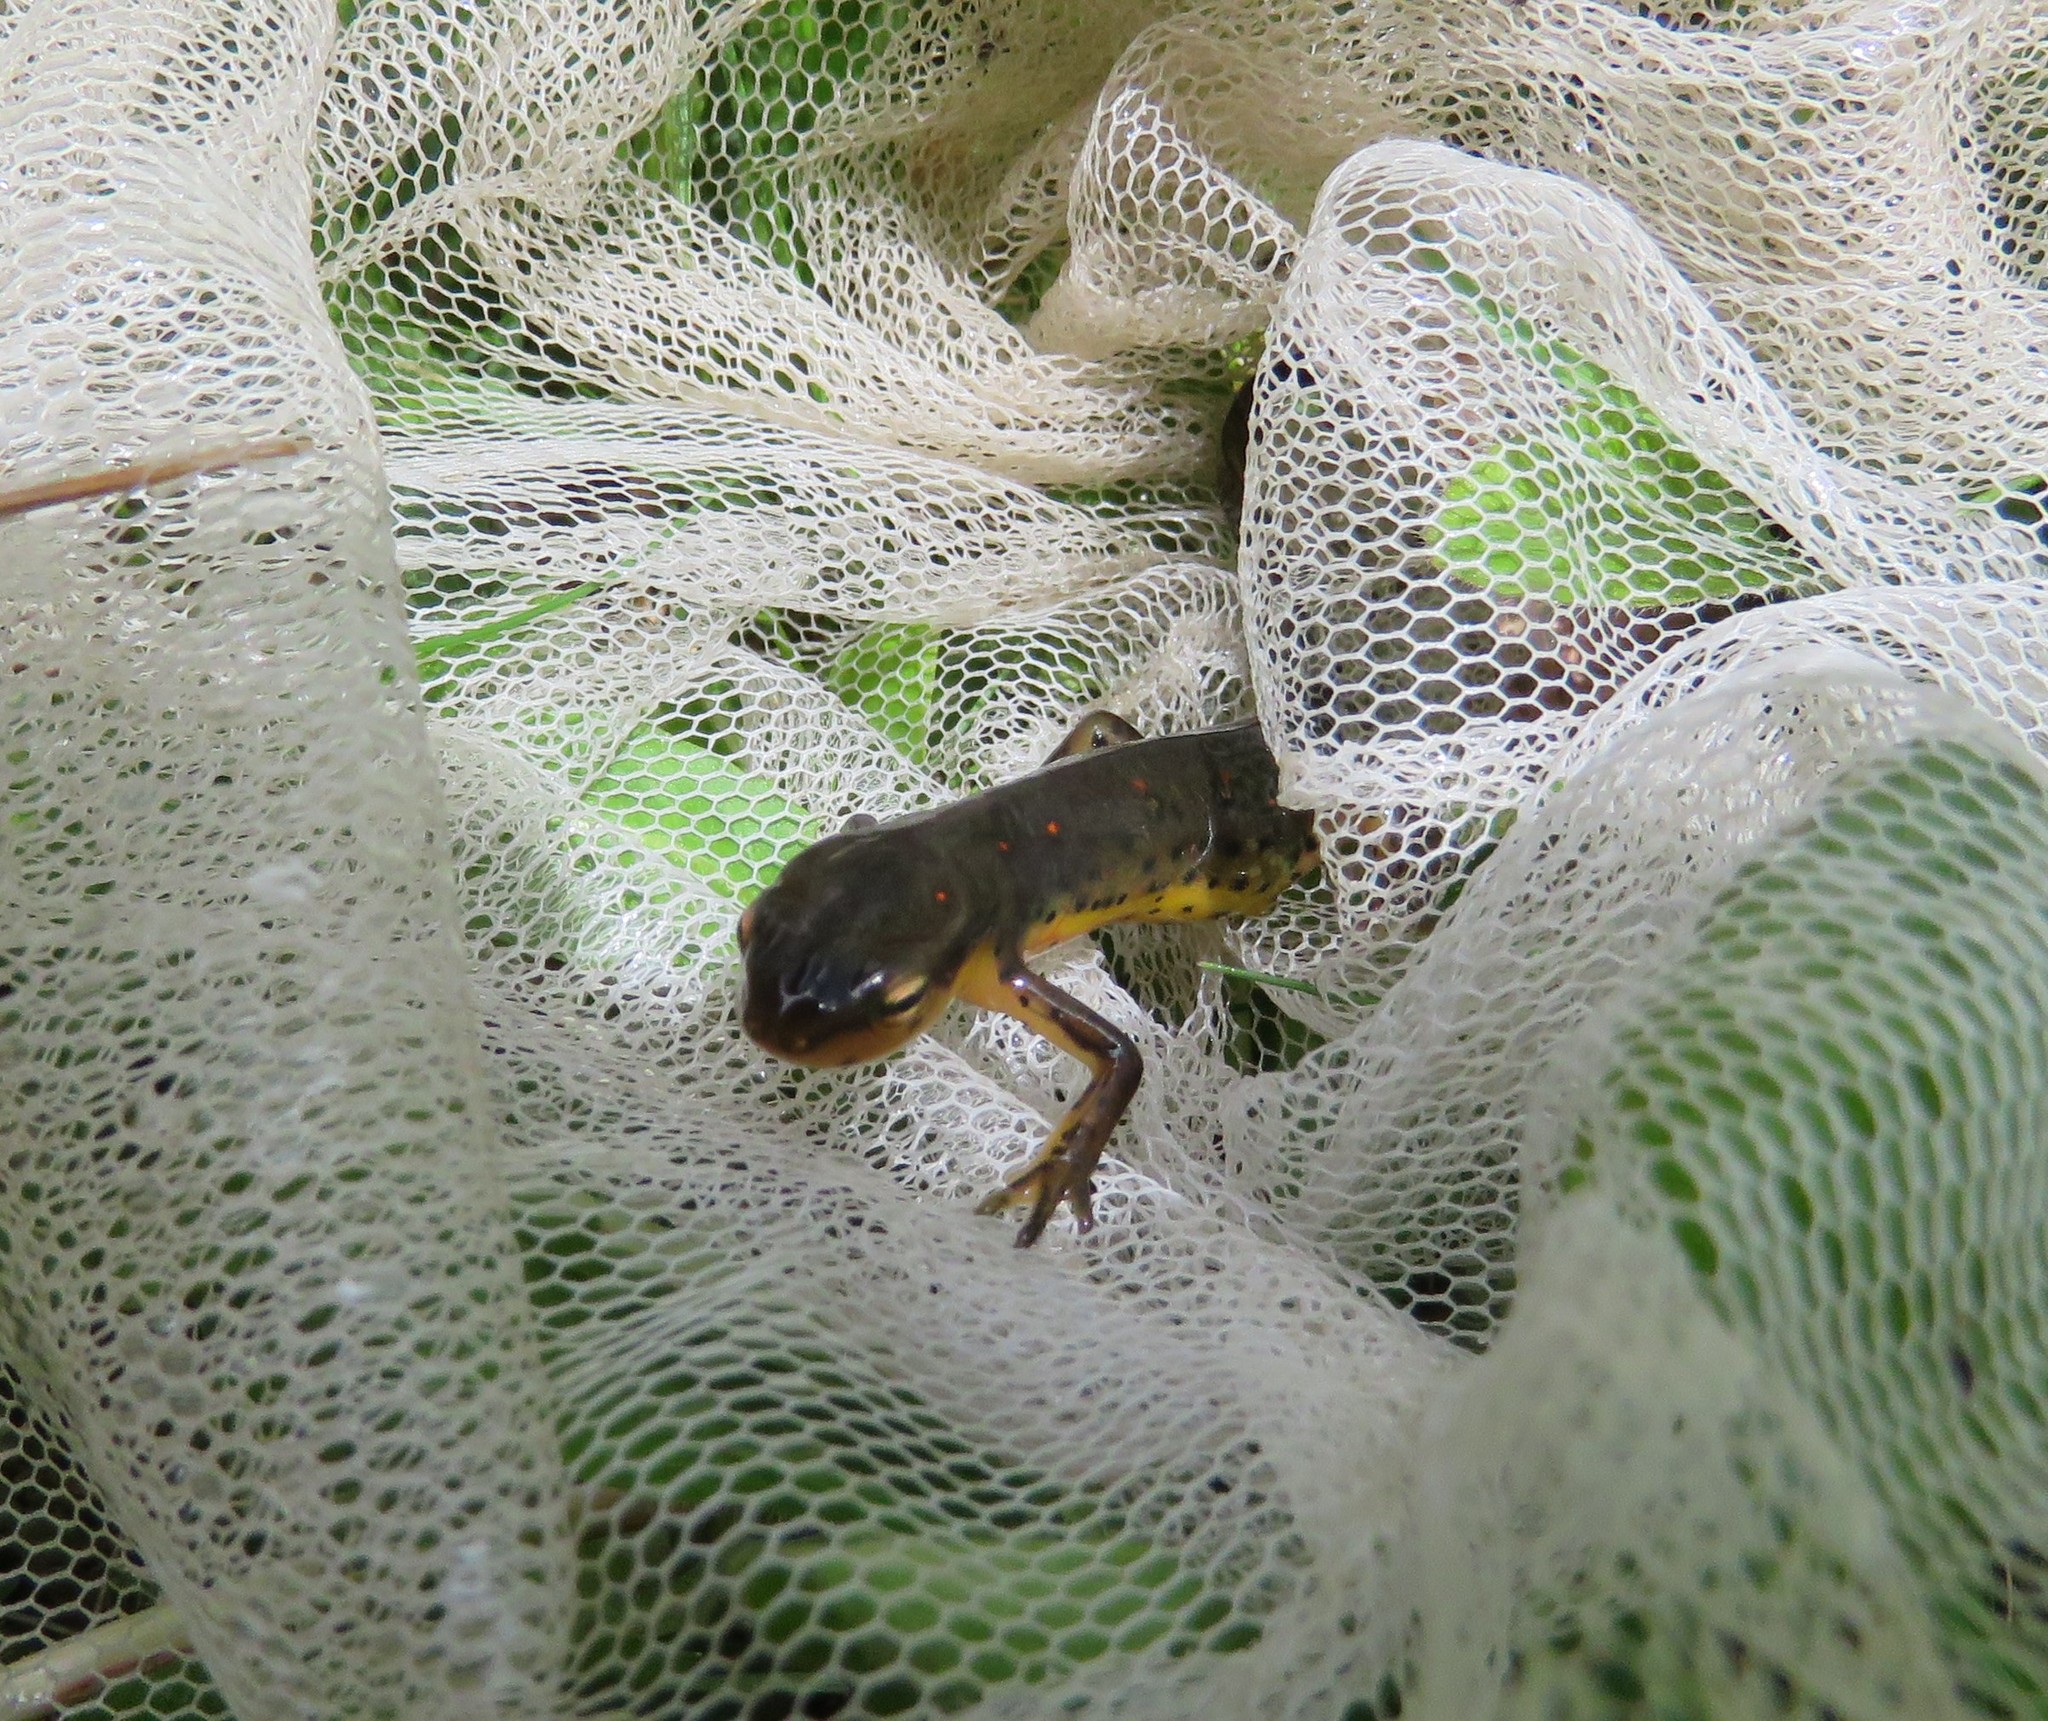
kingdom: Animalia
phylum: Chordata
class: Amphibia
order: Caudata
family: Salamandridae
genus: Notophthalmus
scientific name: Notophthalmus viridescens
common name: Eastern newt
